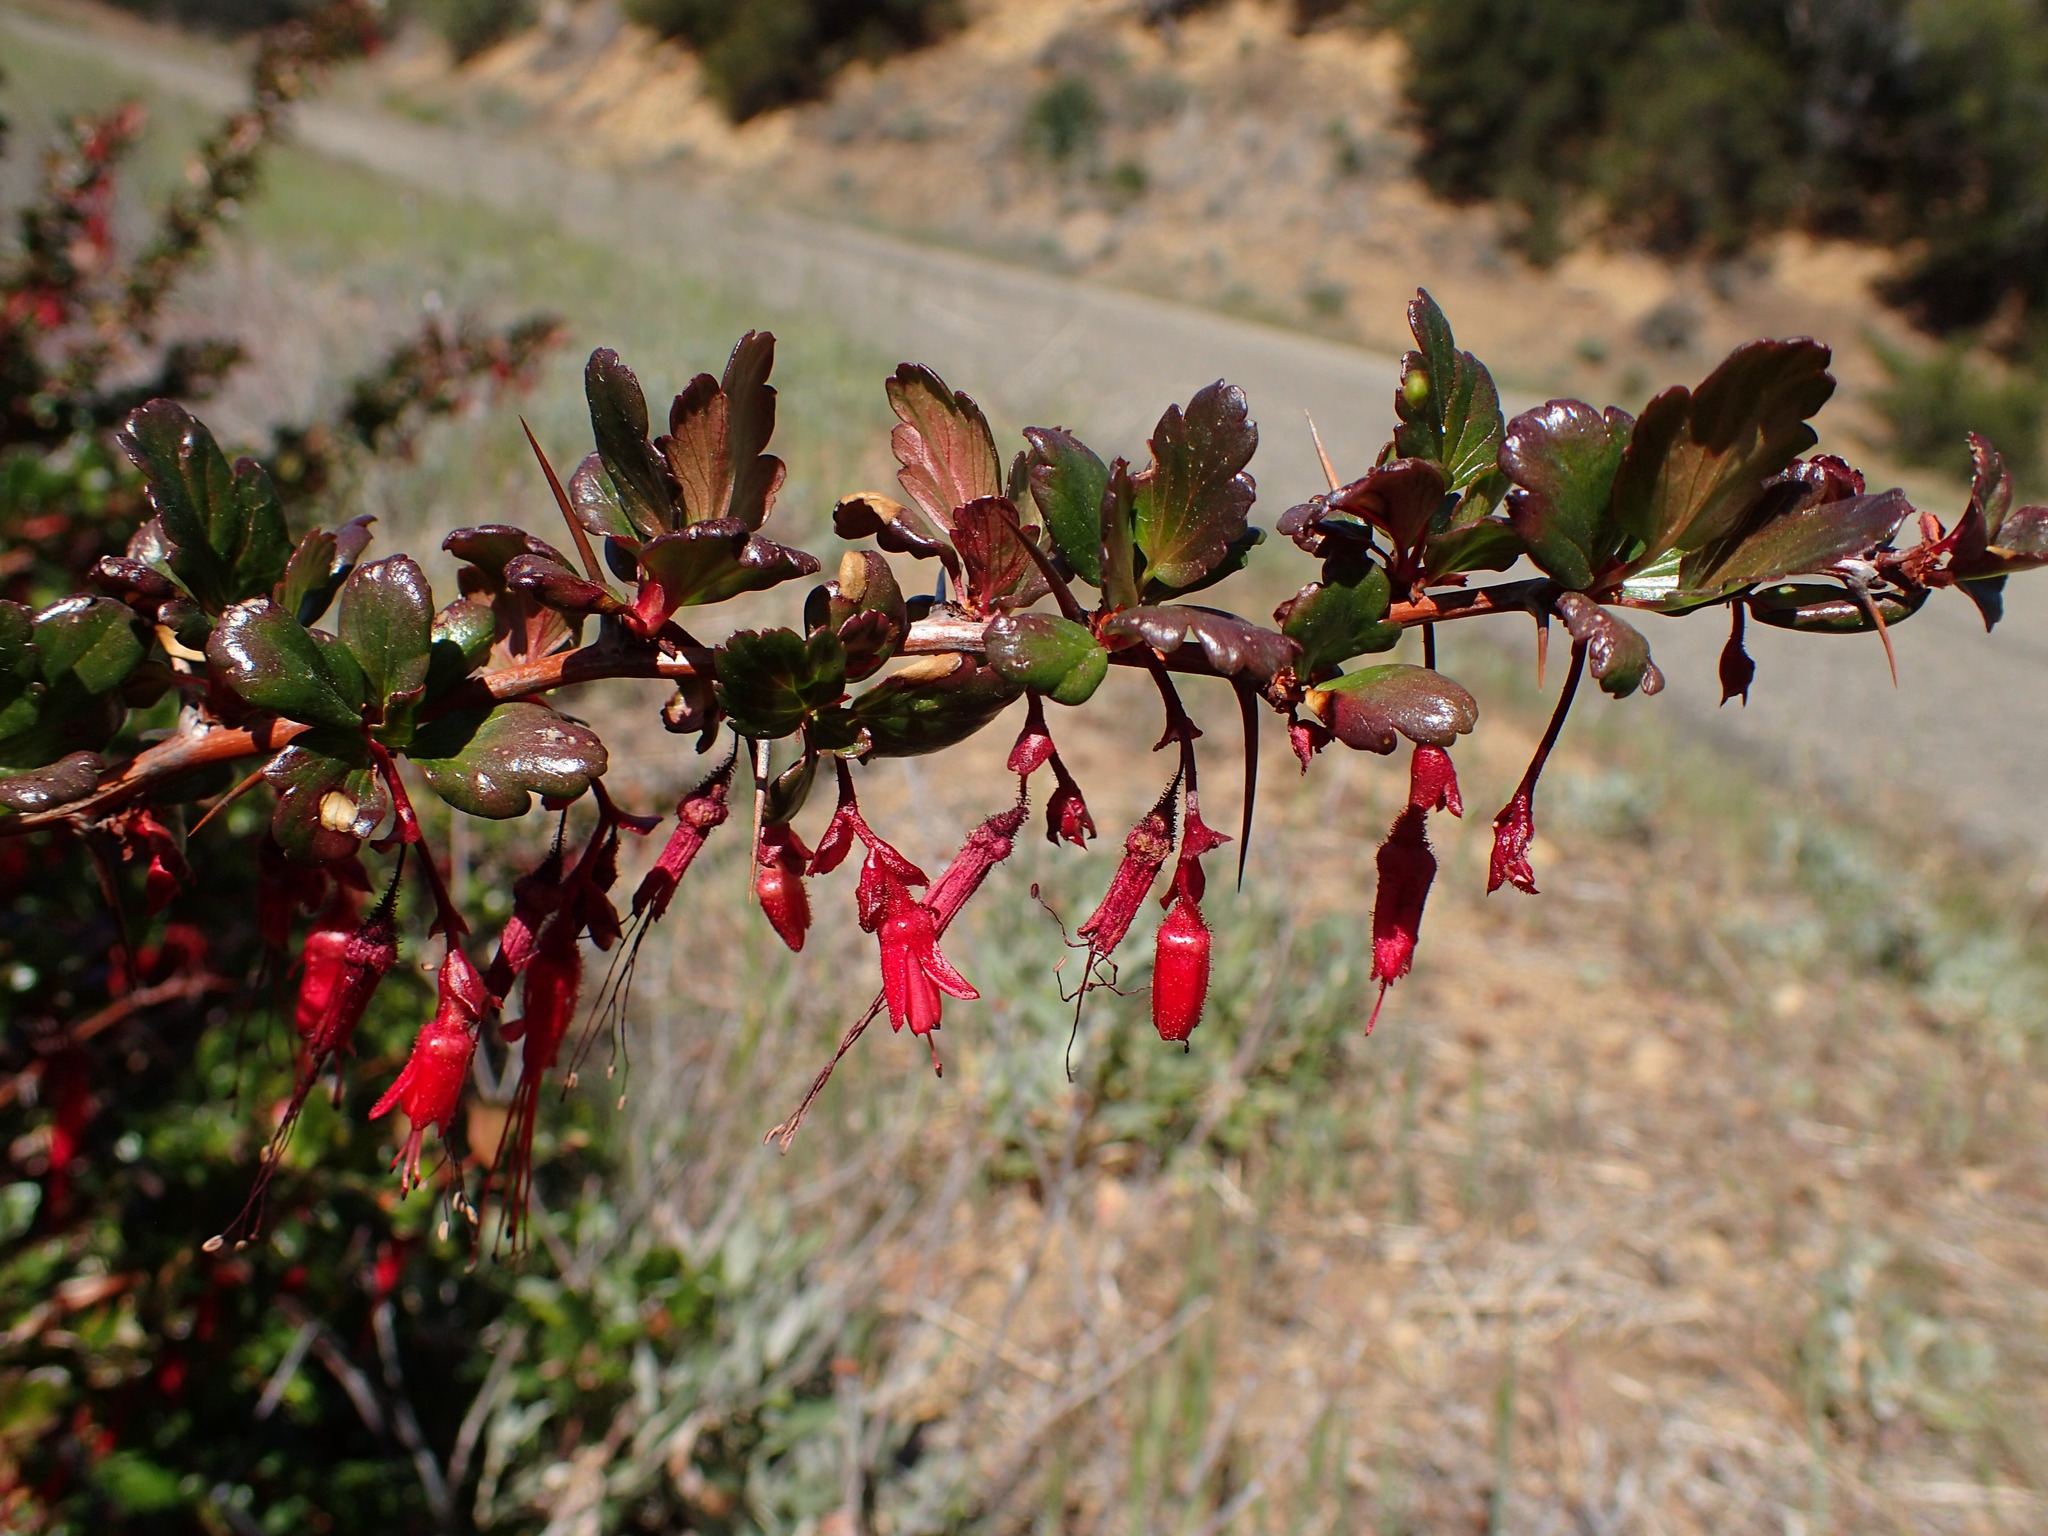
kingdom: Plantae
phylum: Tracheophyta
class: Magnoliopsida
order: Saxifragales
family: Grossulariaceae
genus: Ribes
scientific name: Ribes speciosum
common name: Fuchsia-flower gooseberry
